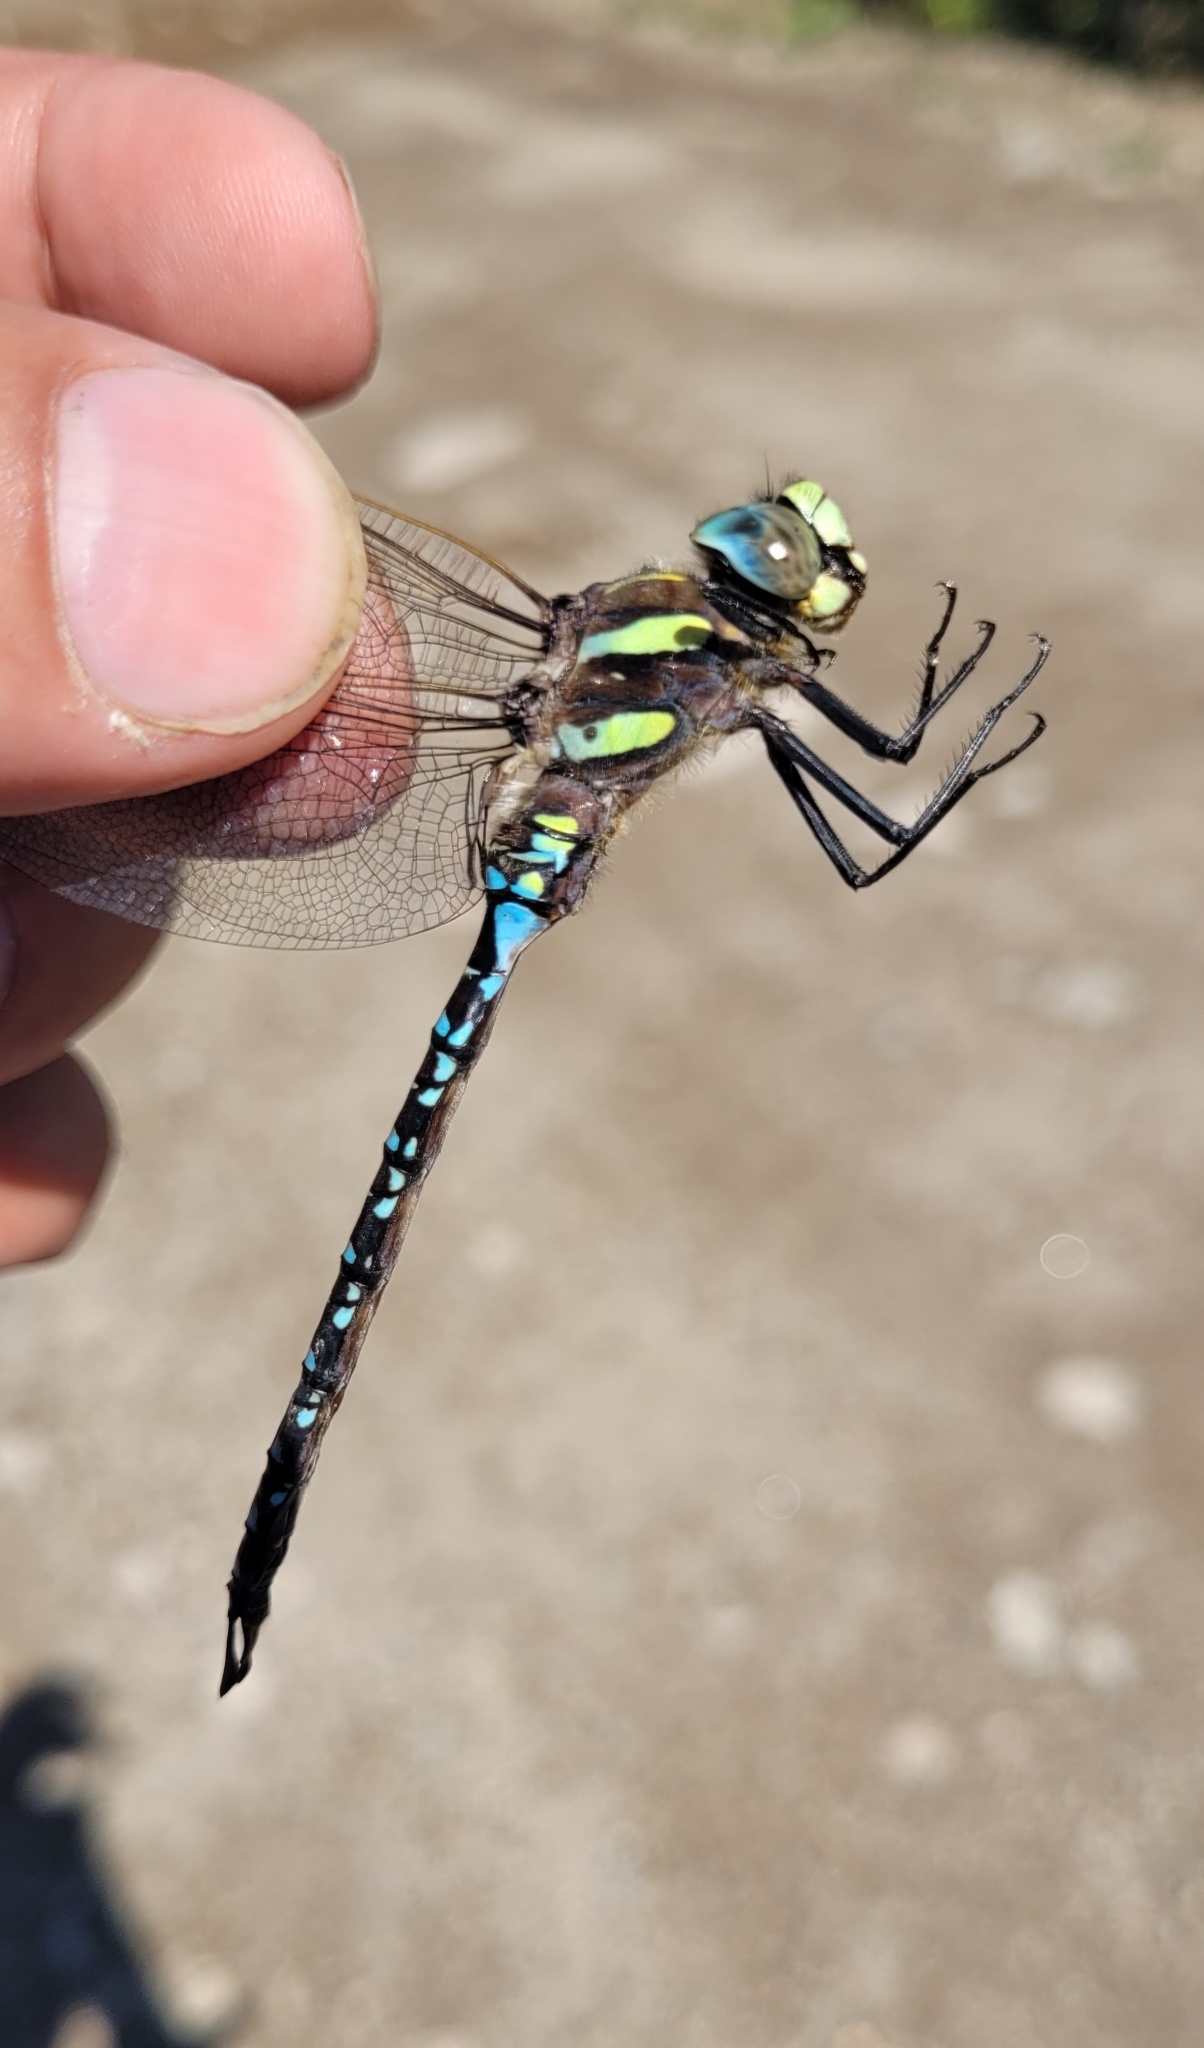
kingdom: Animalia
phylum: Arthropoda
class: Insecta
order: Odonata
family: Aeshnidae
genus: Aeshna
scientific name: Aeshna juncea
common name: Moorland hawker
